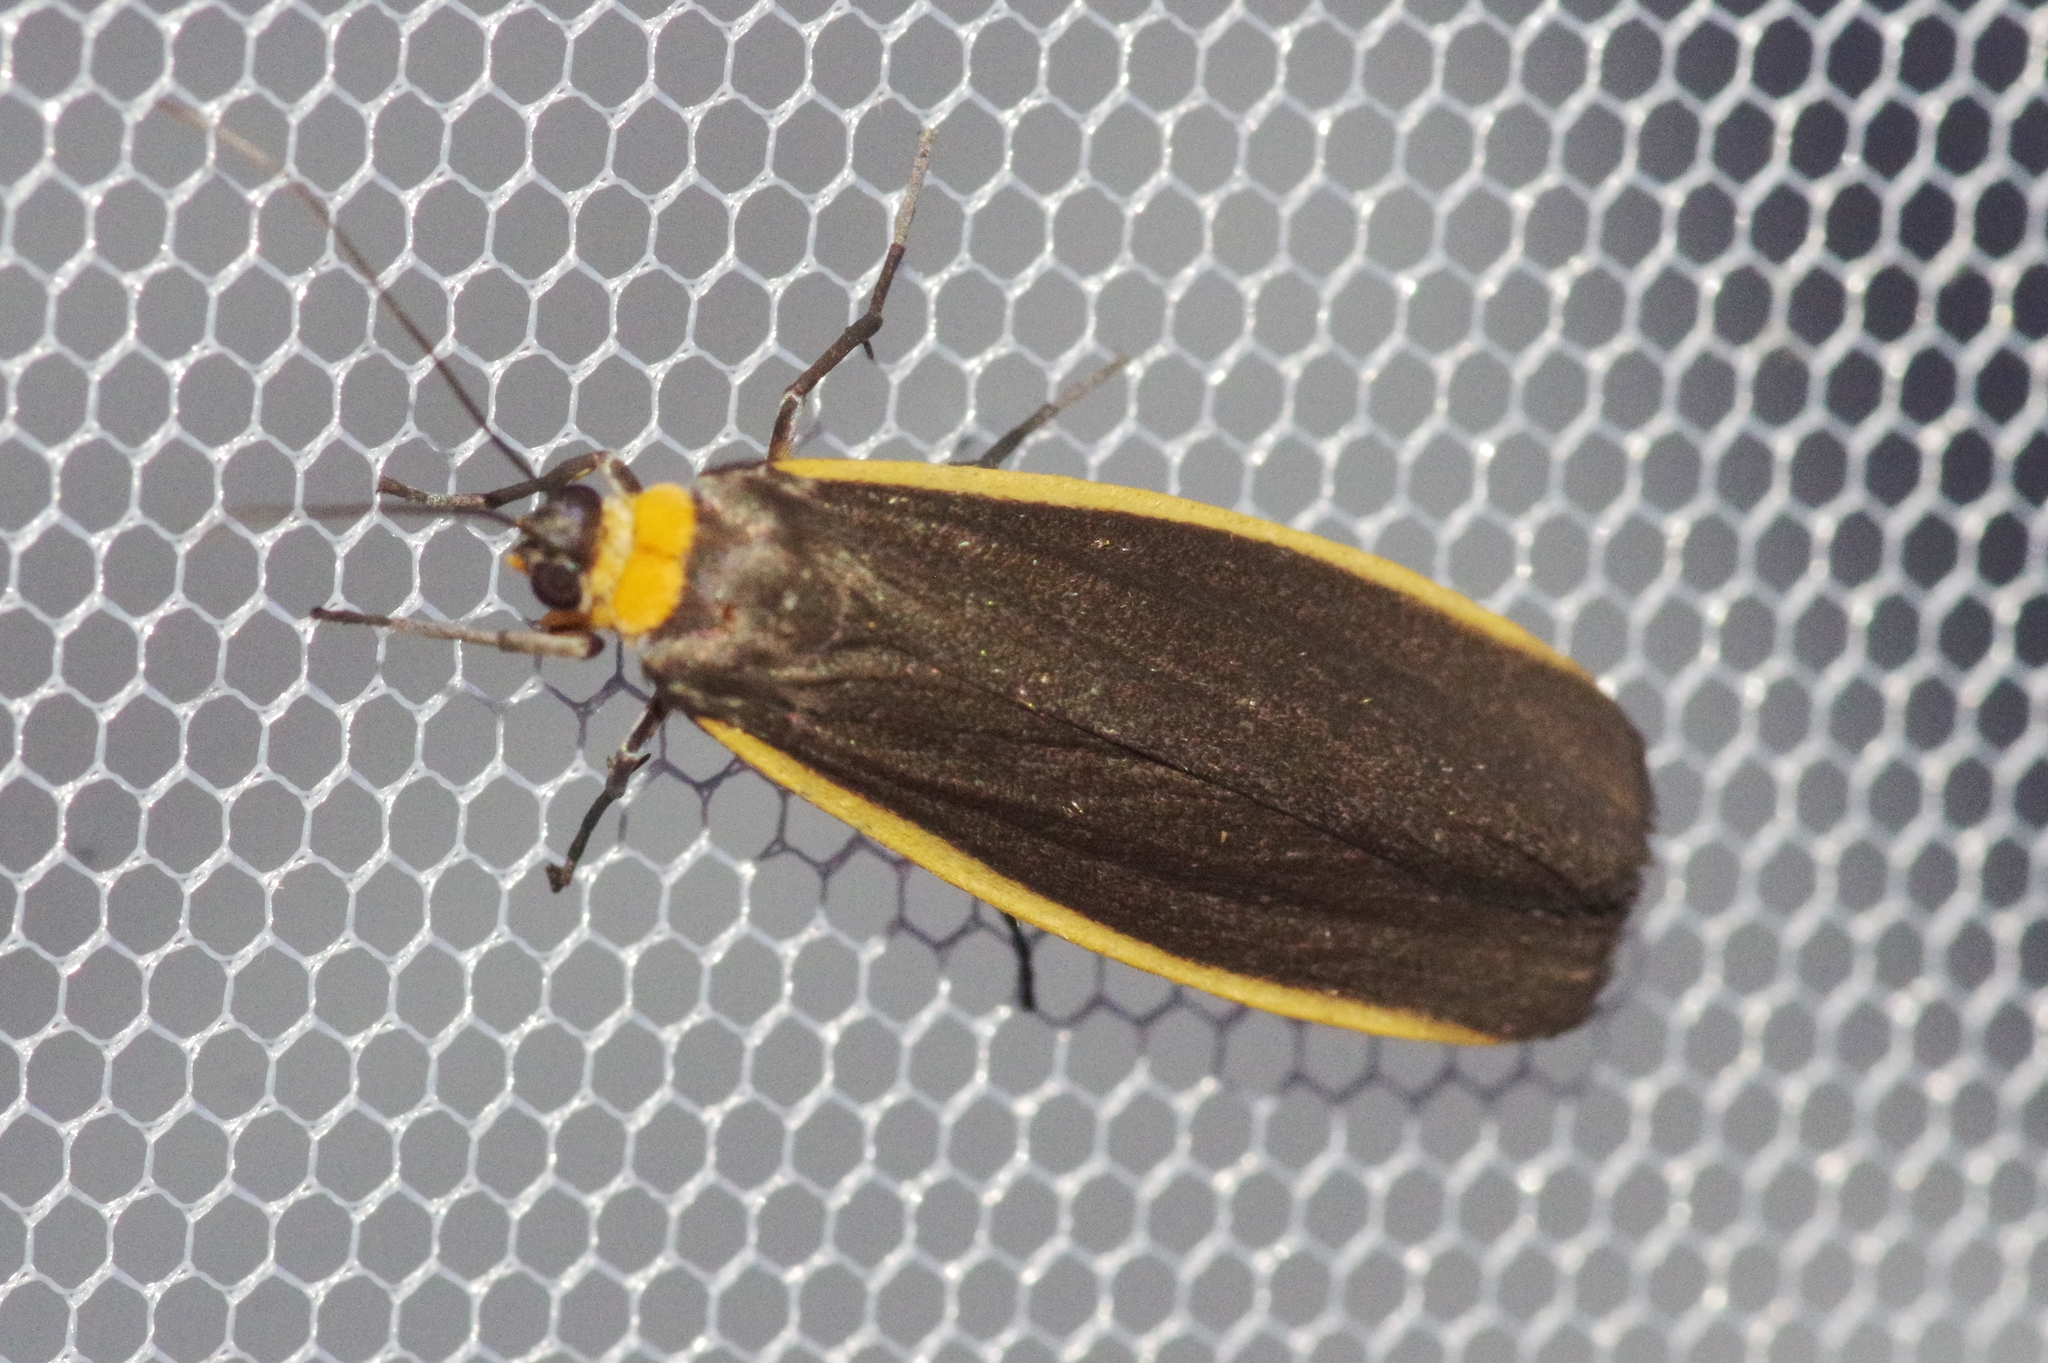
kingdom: Animalia
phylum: Arthropoda
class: Insecta
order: Lepidoptera
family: Erebidae
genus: Ghoria
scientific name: Ghoria collitoides
